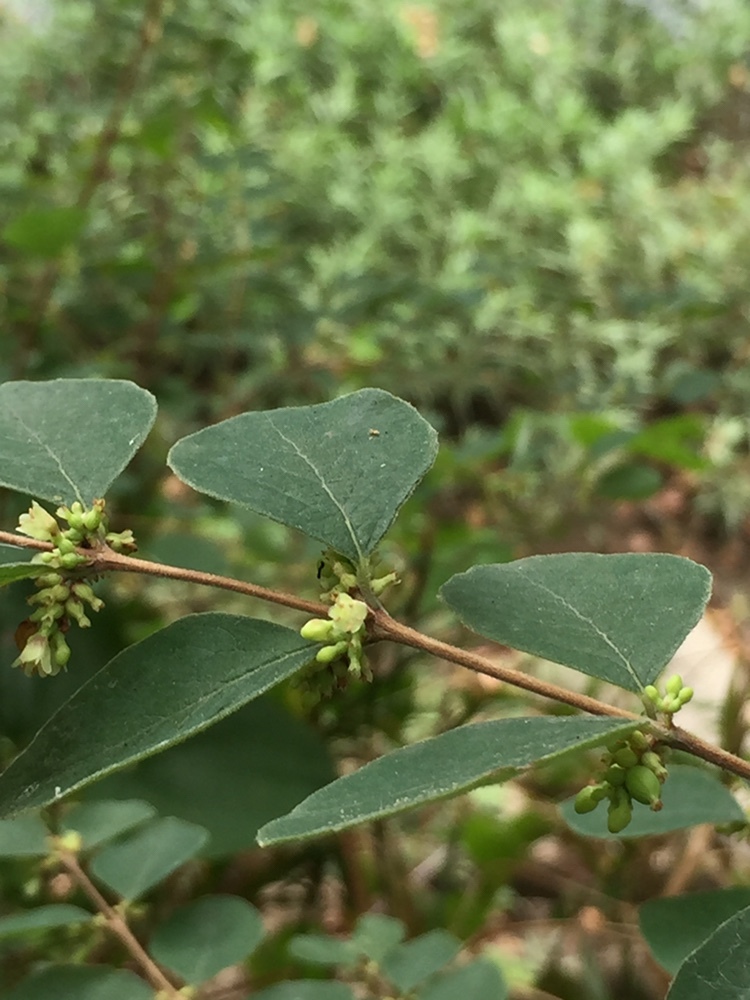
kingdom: Plantae
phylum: Tracheophyta
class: Magnoliopsida
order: Dipsacales
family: Caprifoliaceae
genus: Symphoricarpos
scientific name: Symphoricarpos orbiculatus
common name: Coralberry
